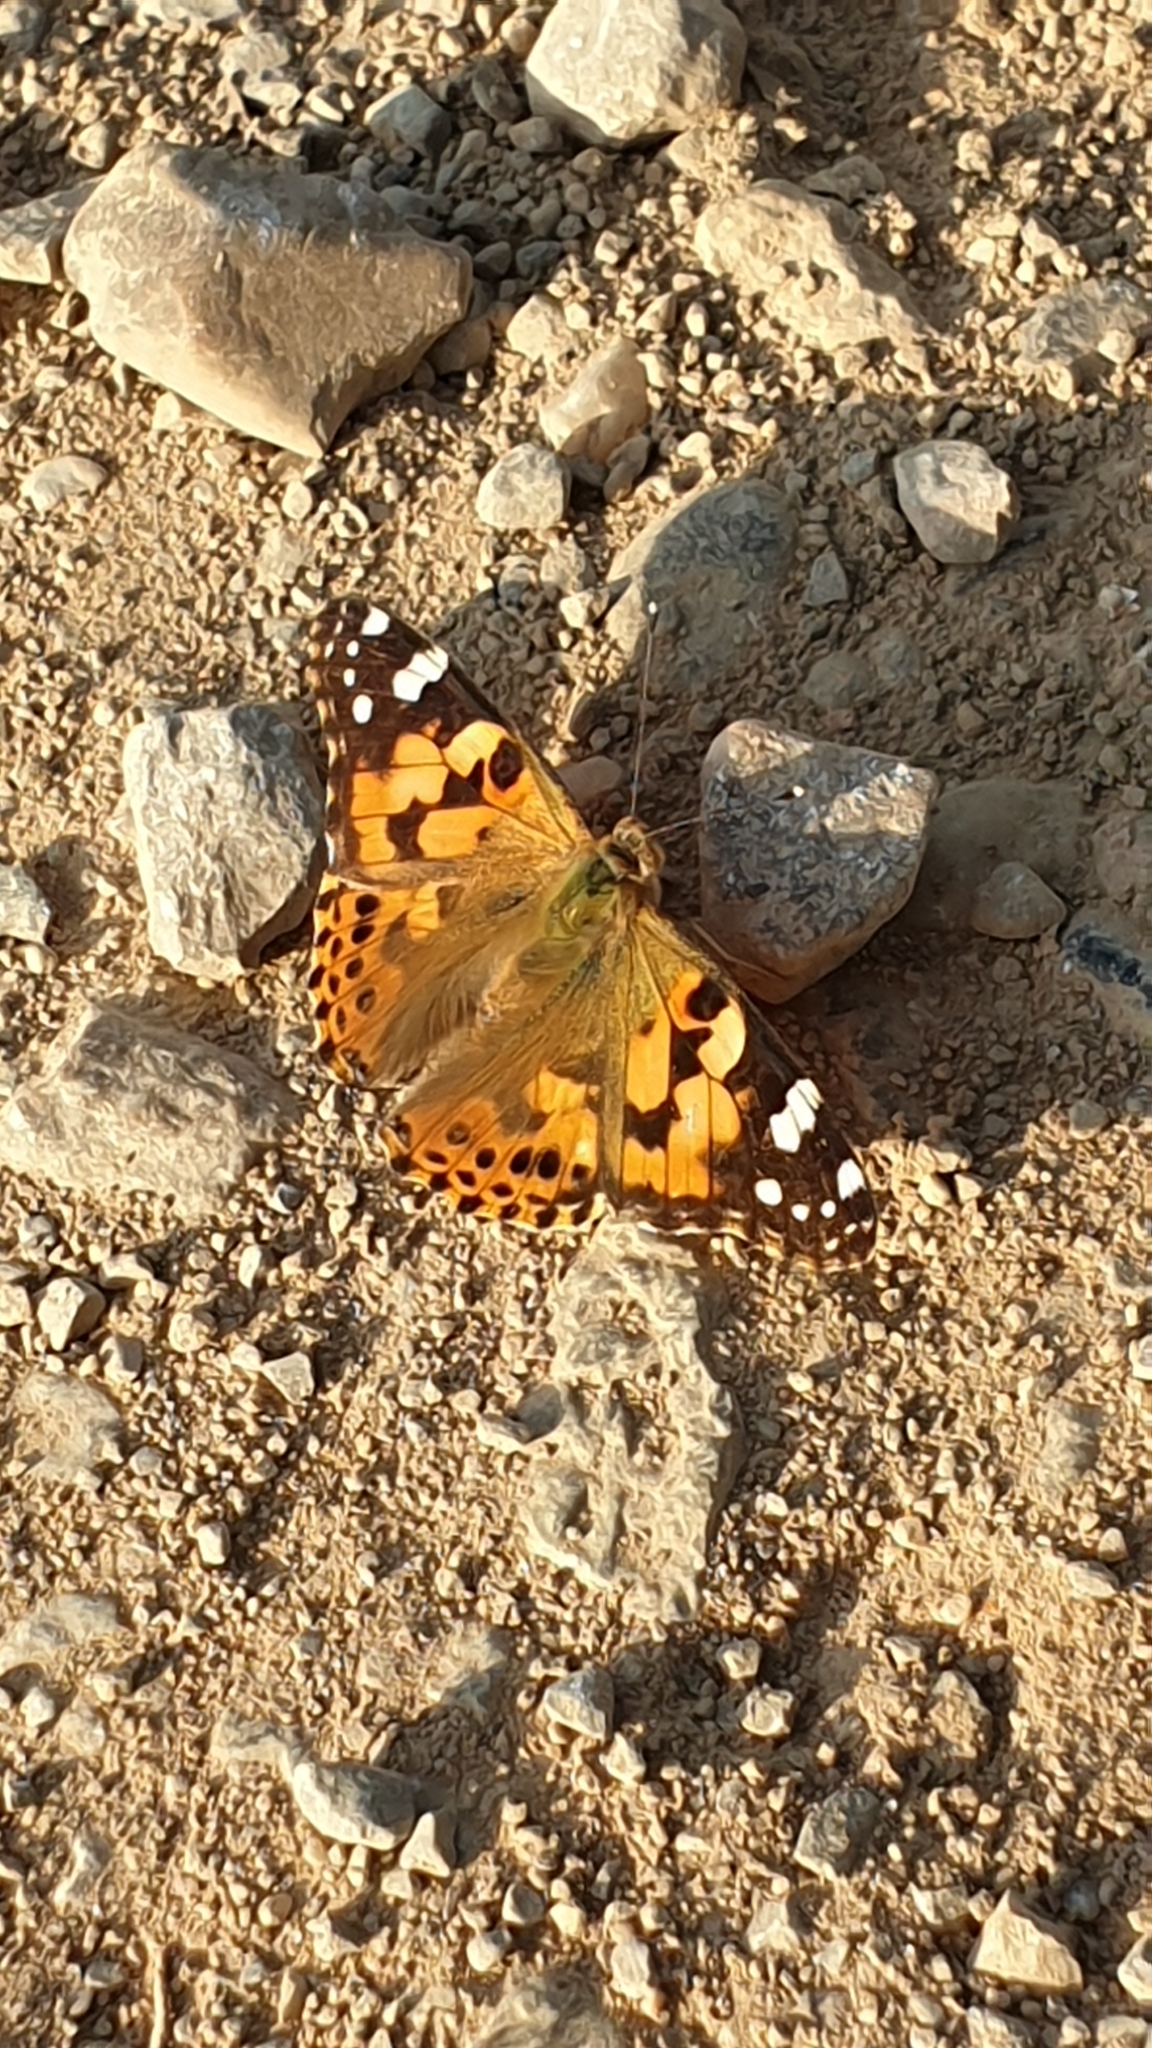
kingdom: Animalia
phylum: Arthropoda
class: Insecta
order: Lepidoptera
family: Nymphalidae
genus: Vanessa
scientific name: Vanessa cardui
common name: Painted lady
